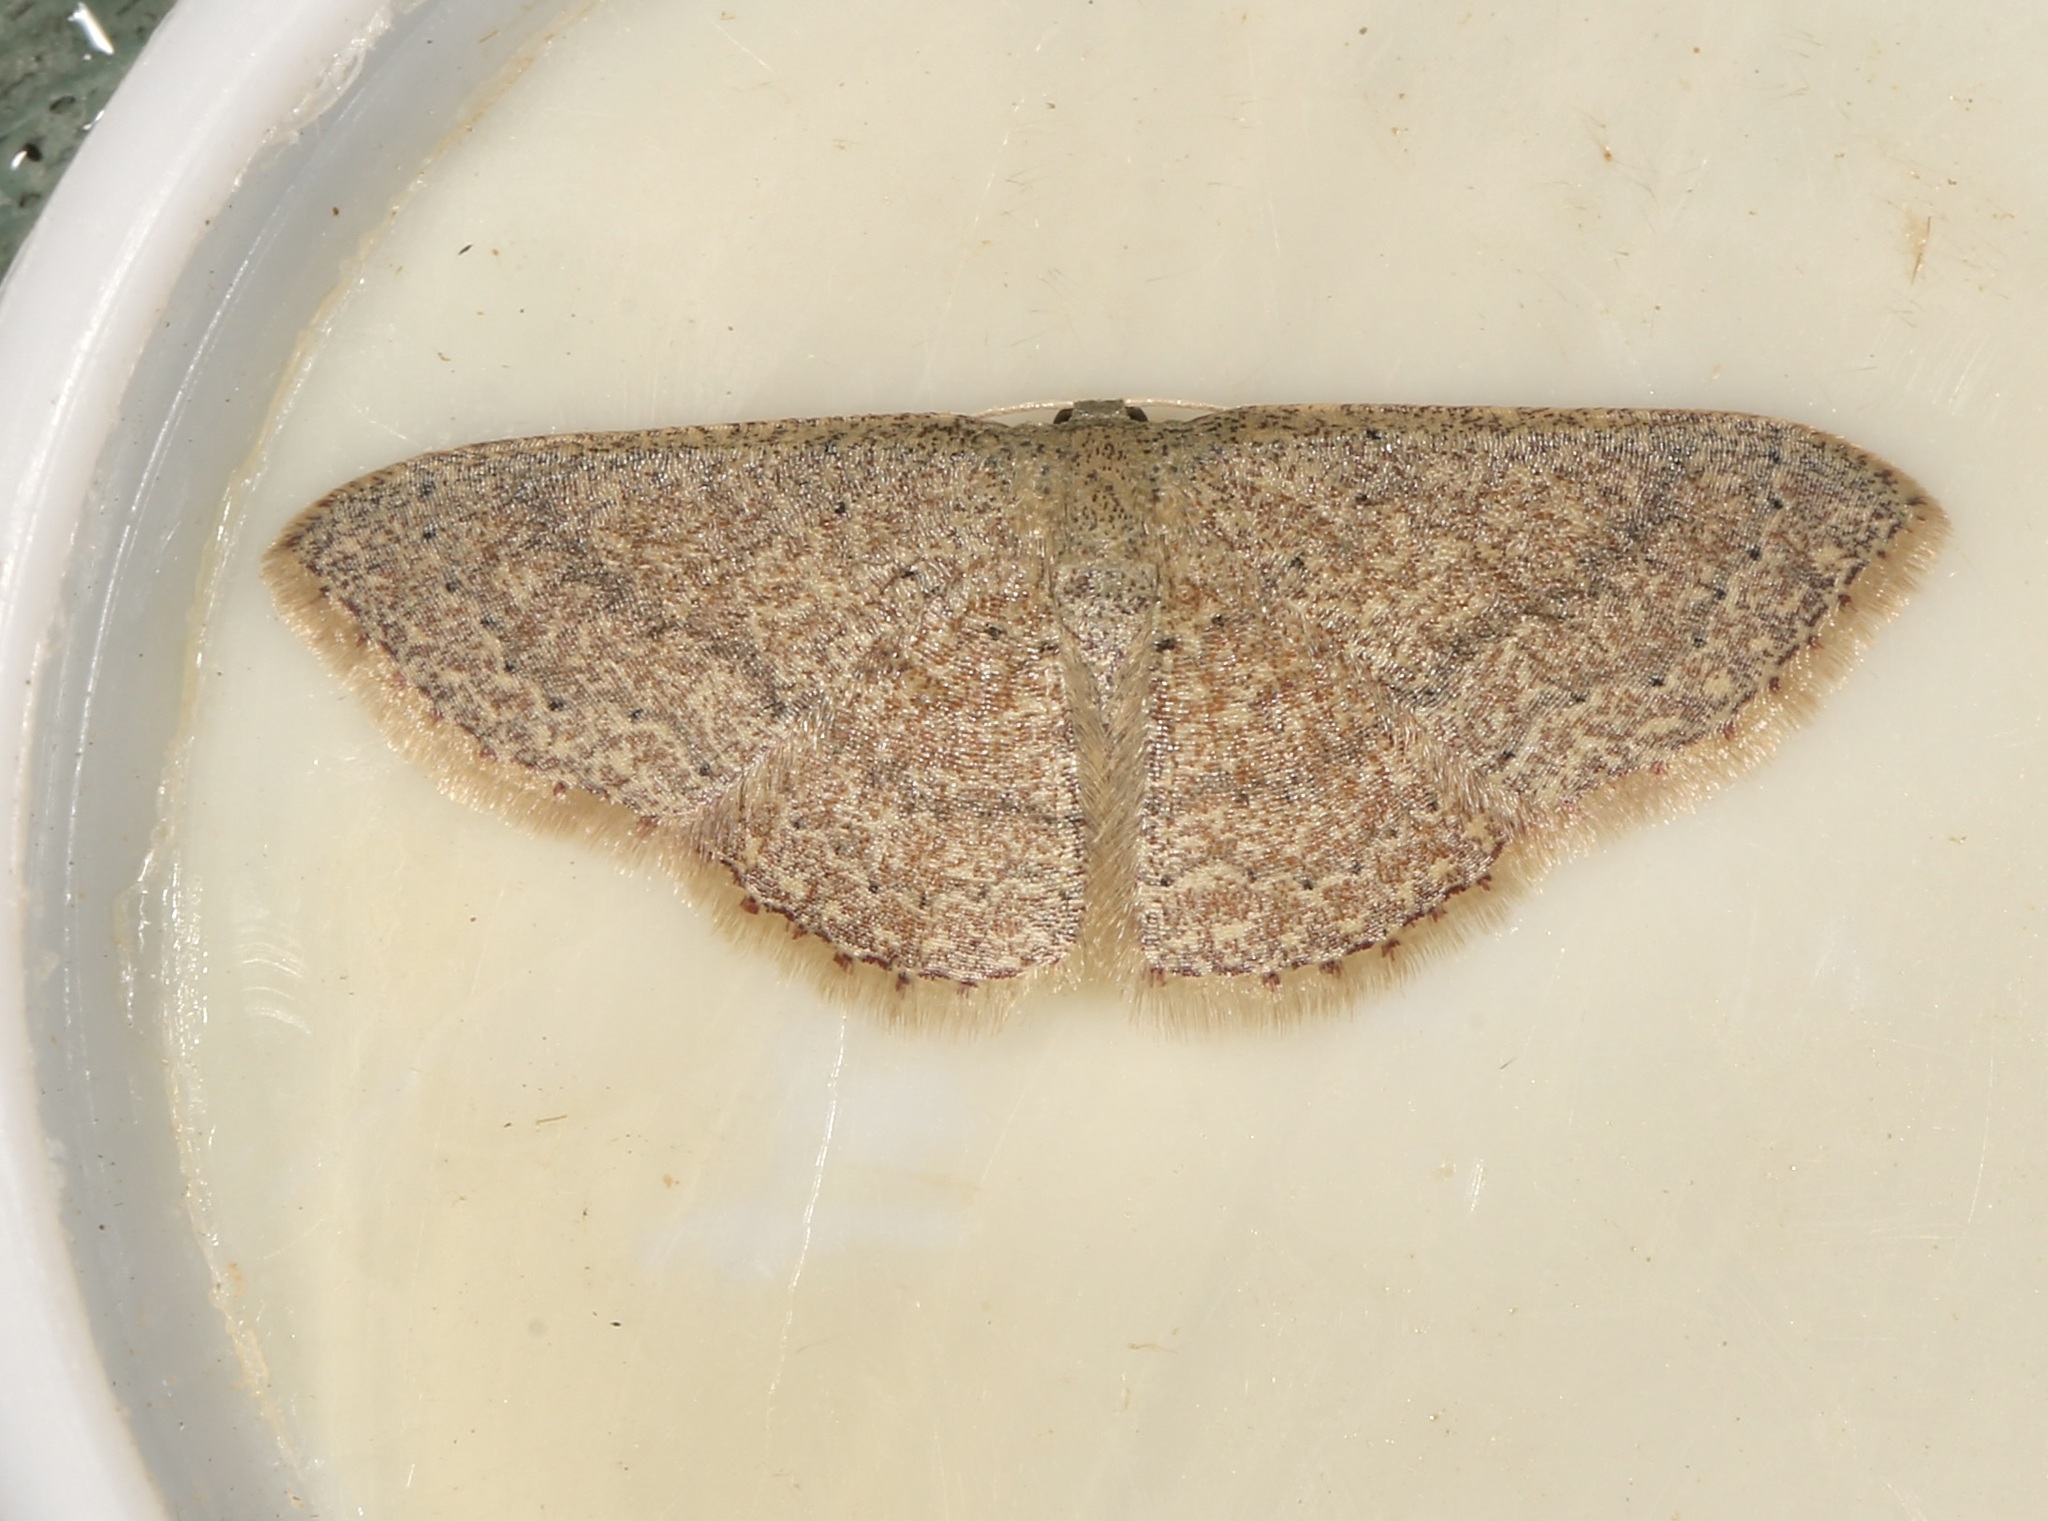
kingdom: Animalia
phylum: Arthropoda
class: Insecta
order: Lepidoptera
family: Geometridae
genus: Pleuroprucha
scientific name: Pleuroprucha insulsaria
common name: Common tan wave
